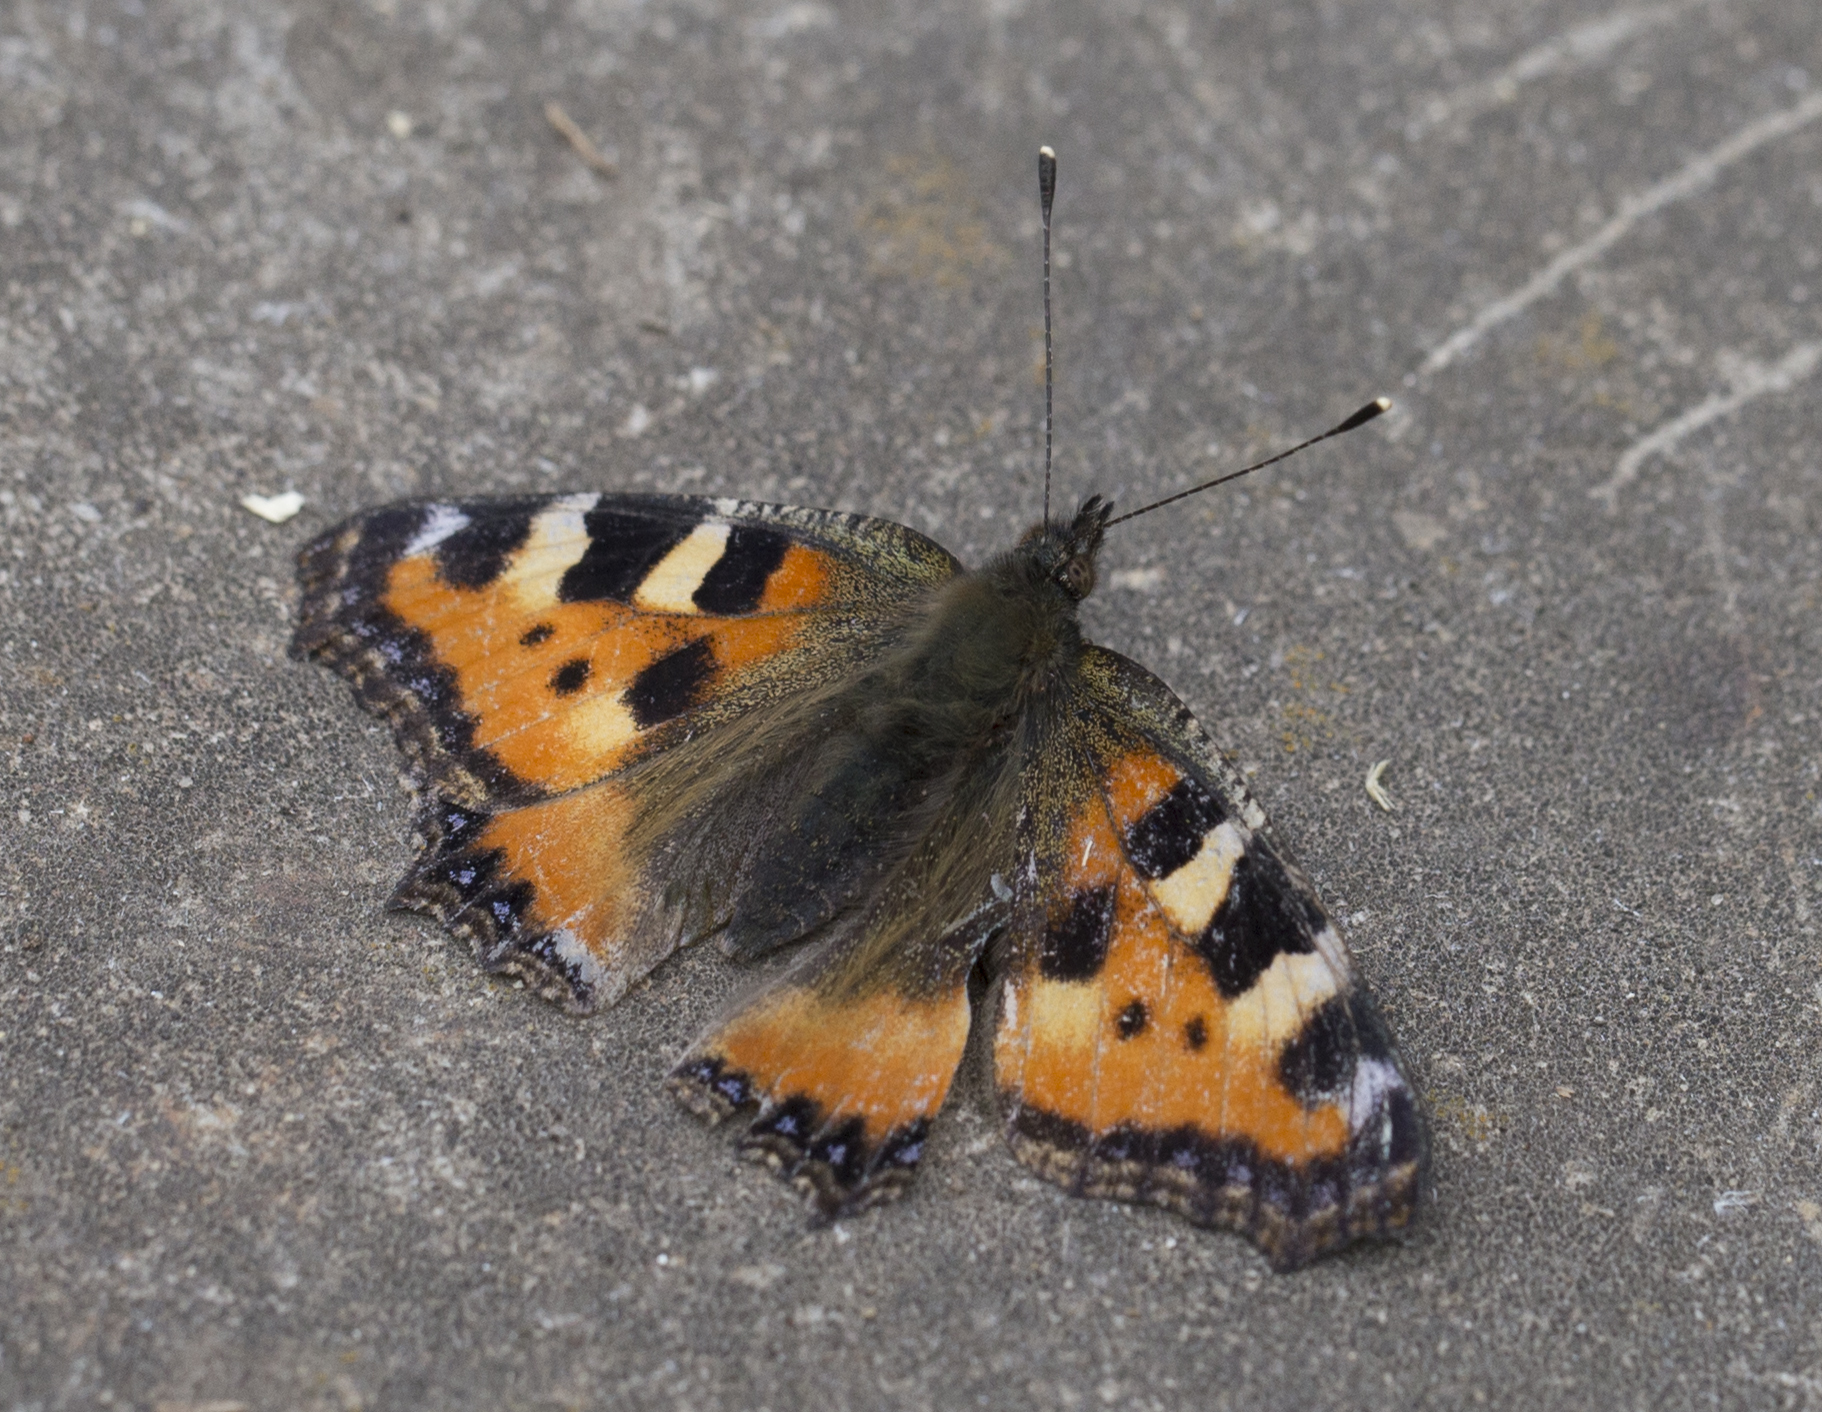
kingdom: Animalia
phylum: Arthropoda
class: Insecta
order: Lepidoptera
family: Nymphalidae
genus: Aglais
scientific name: Aglais urticae
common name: Small tortoiseshell
